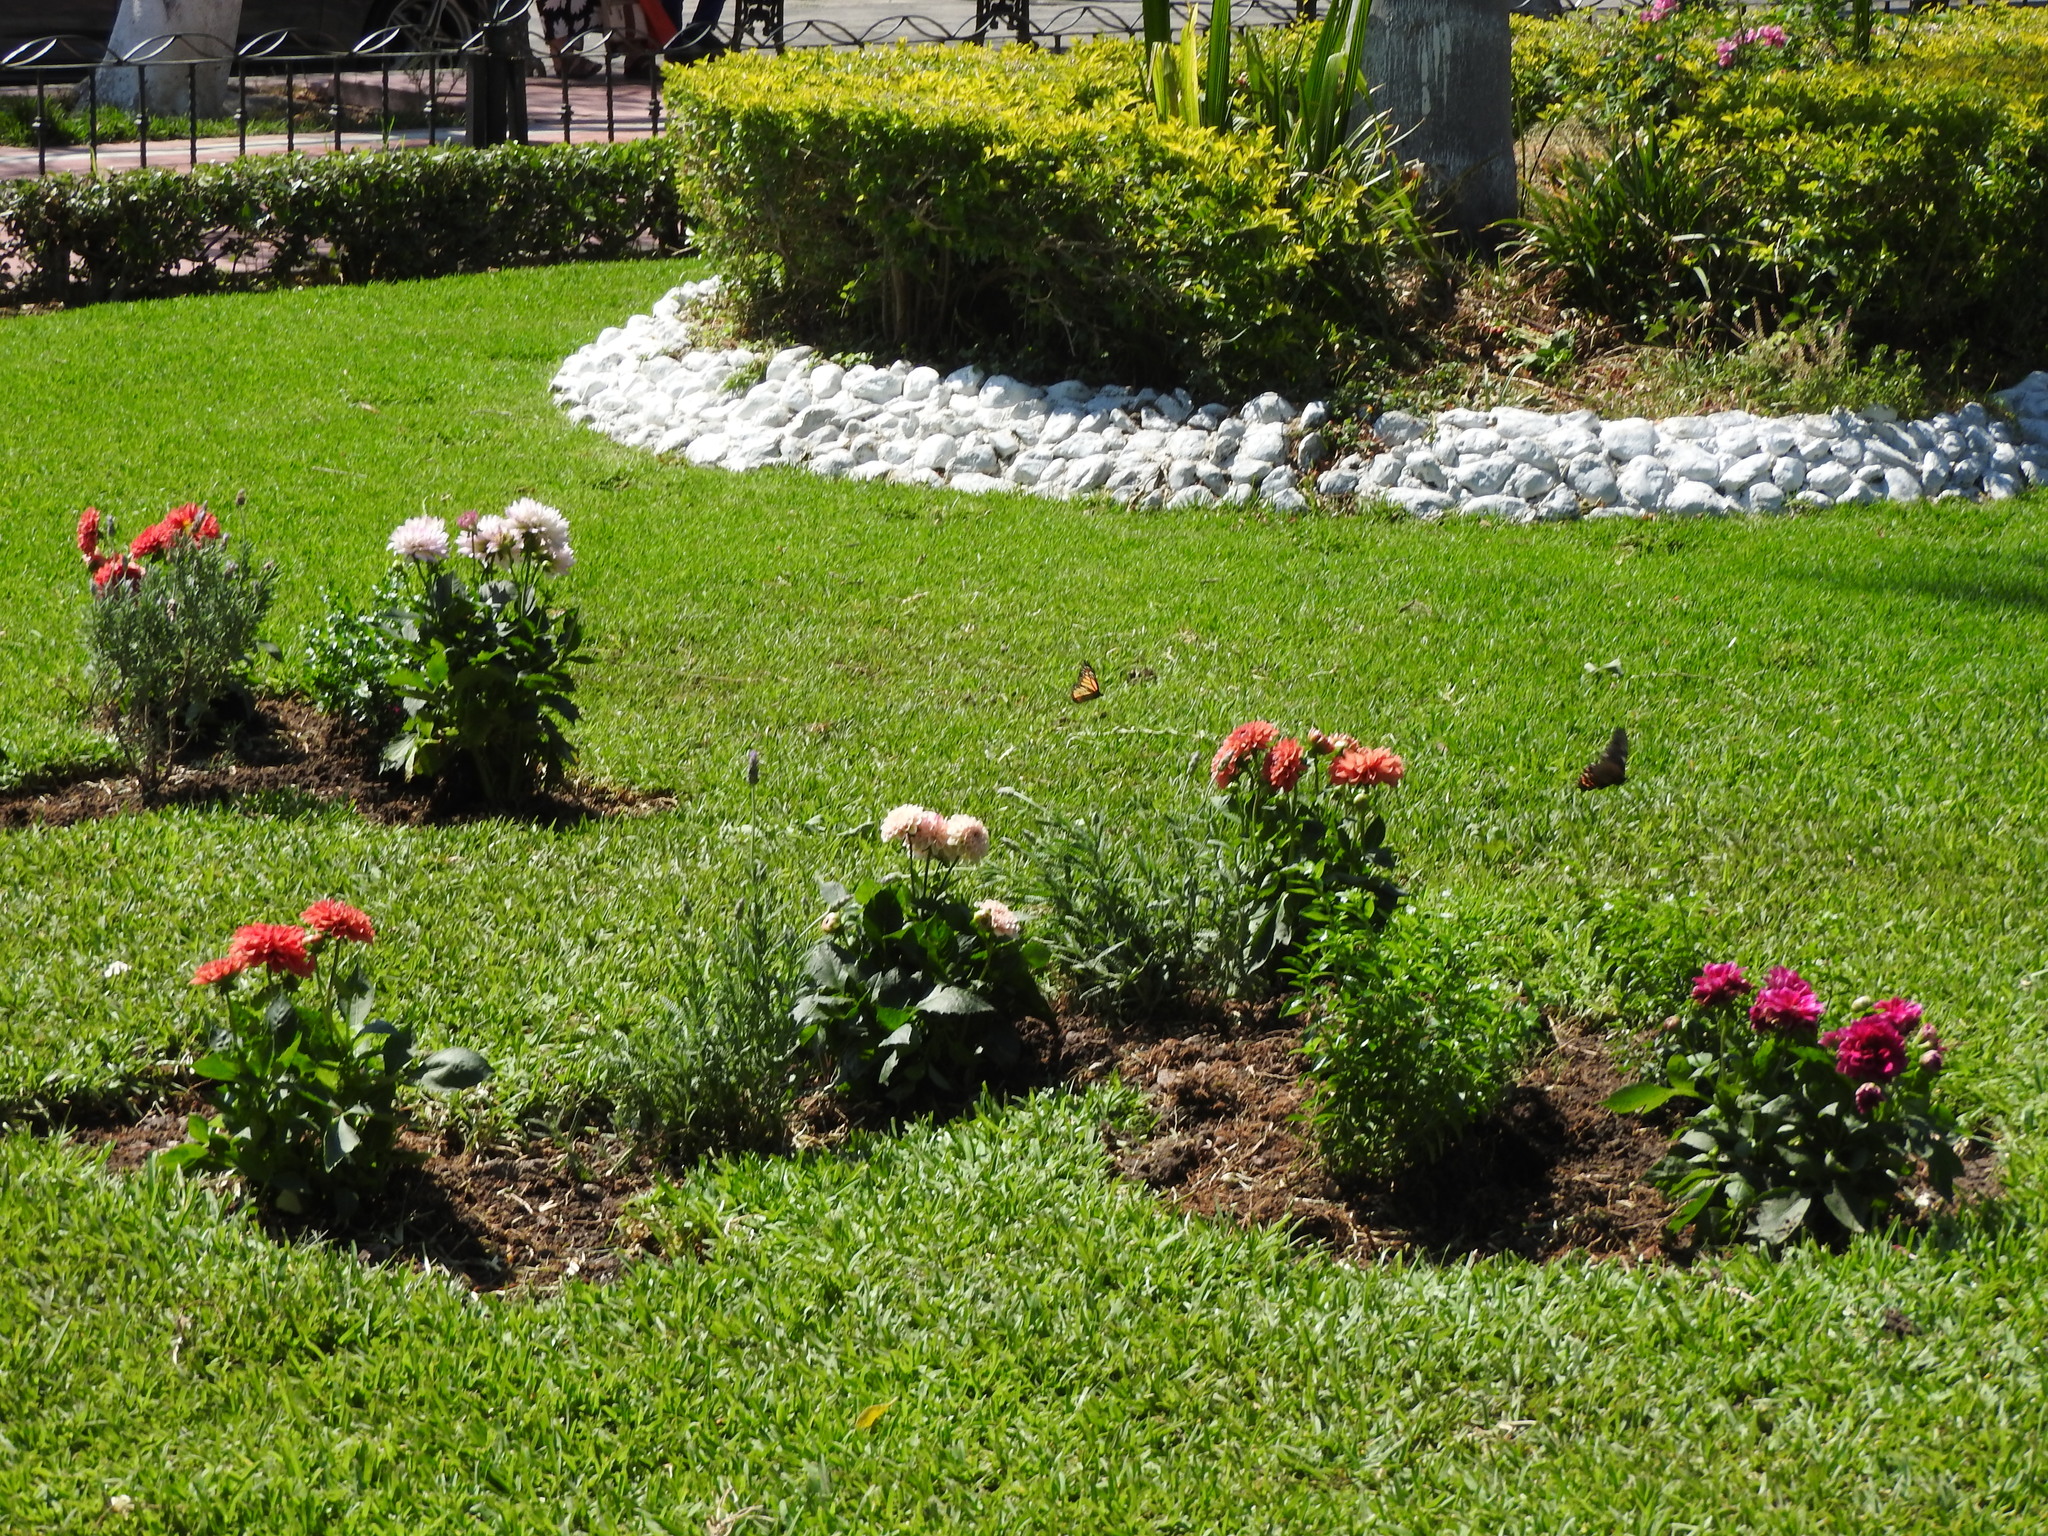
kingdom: Animalia
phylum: Arthropoda
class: Insecta
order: Lepidoptera
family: Nymphalidae
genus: Danaus
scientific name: Danaus plexippus
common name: Monarch
